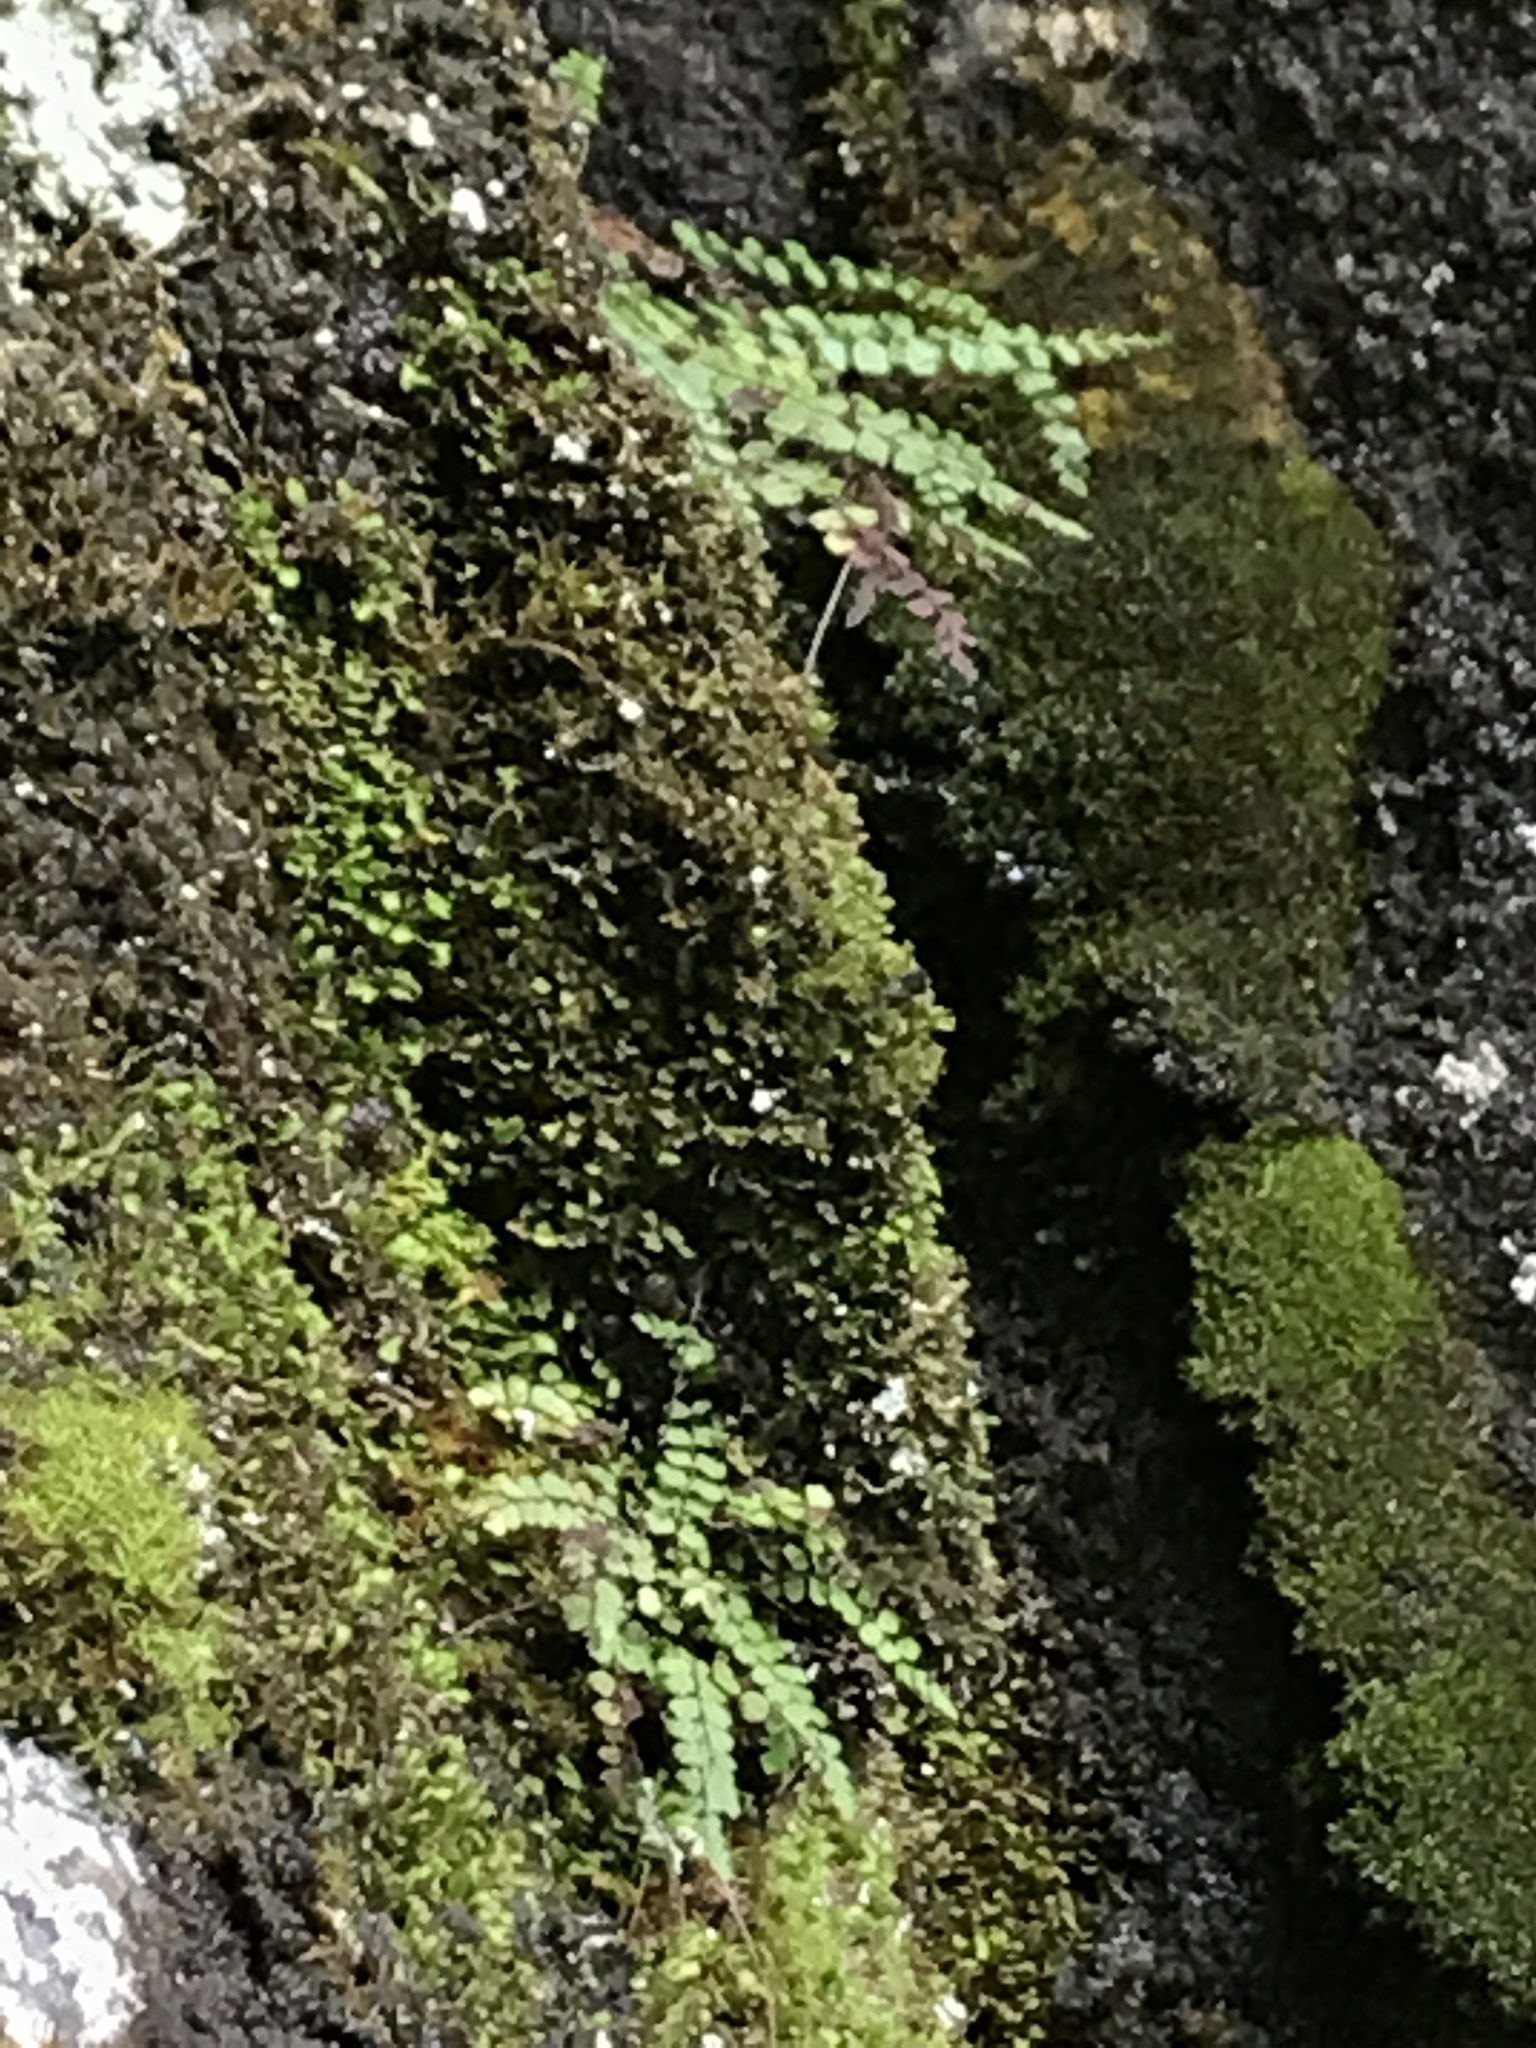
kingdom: Plantae
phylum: Tracheophyta
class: Polypodiopsida
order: Polypodiales
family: Aspleniaceae
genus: Asplenium
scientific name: Asplenium trichomanes
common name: Maidenhair spleenwort
